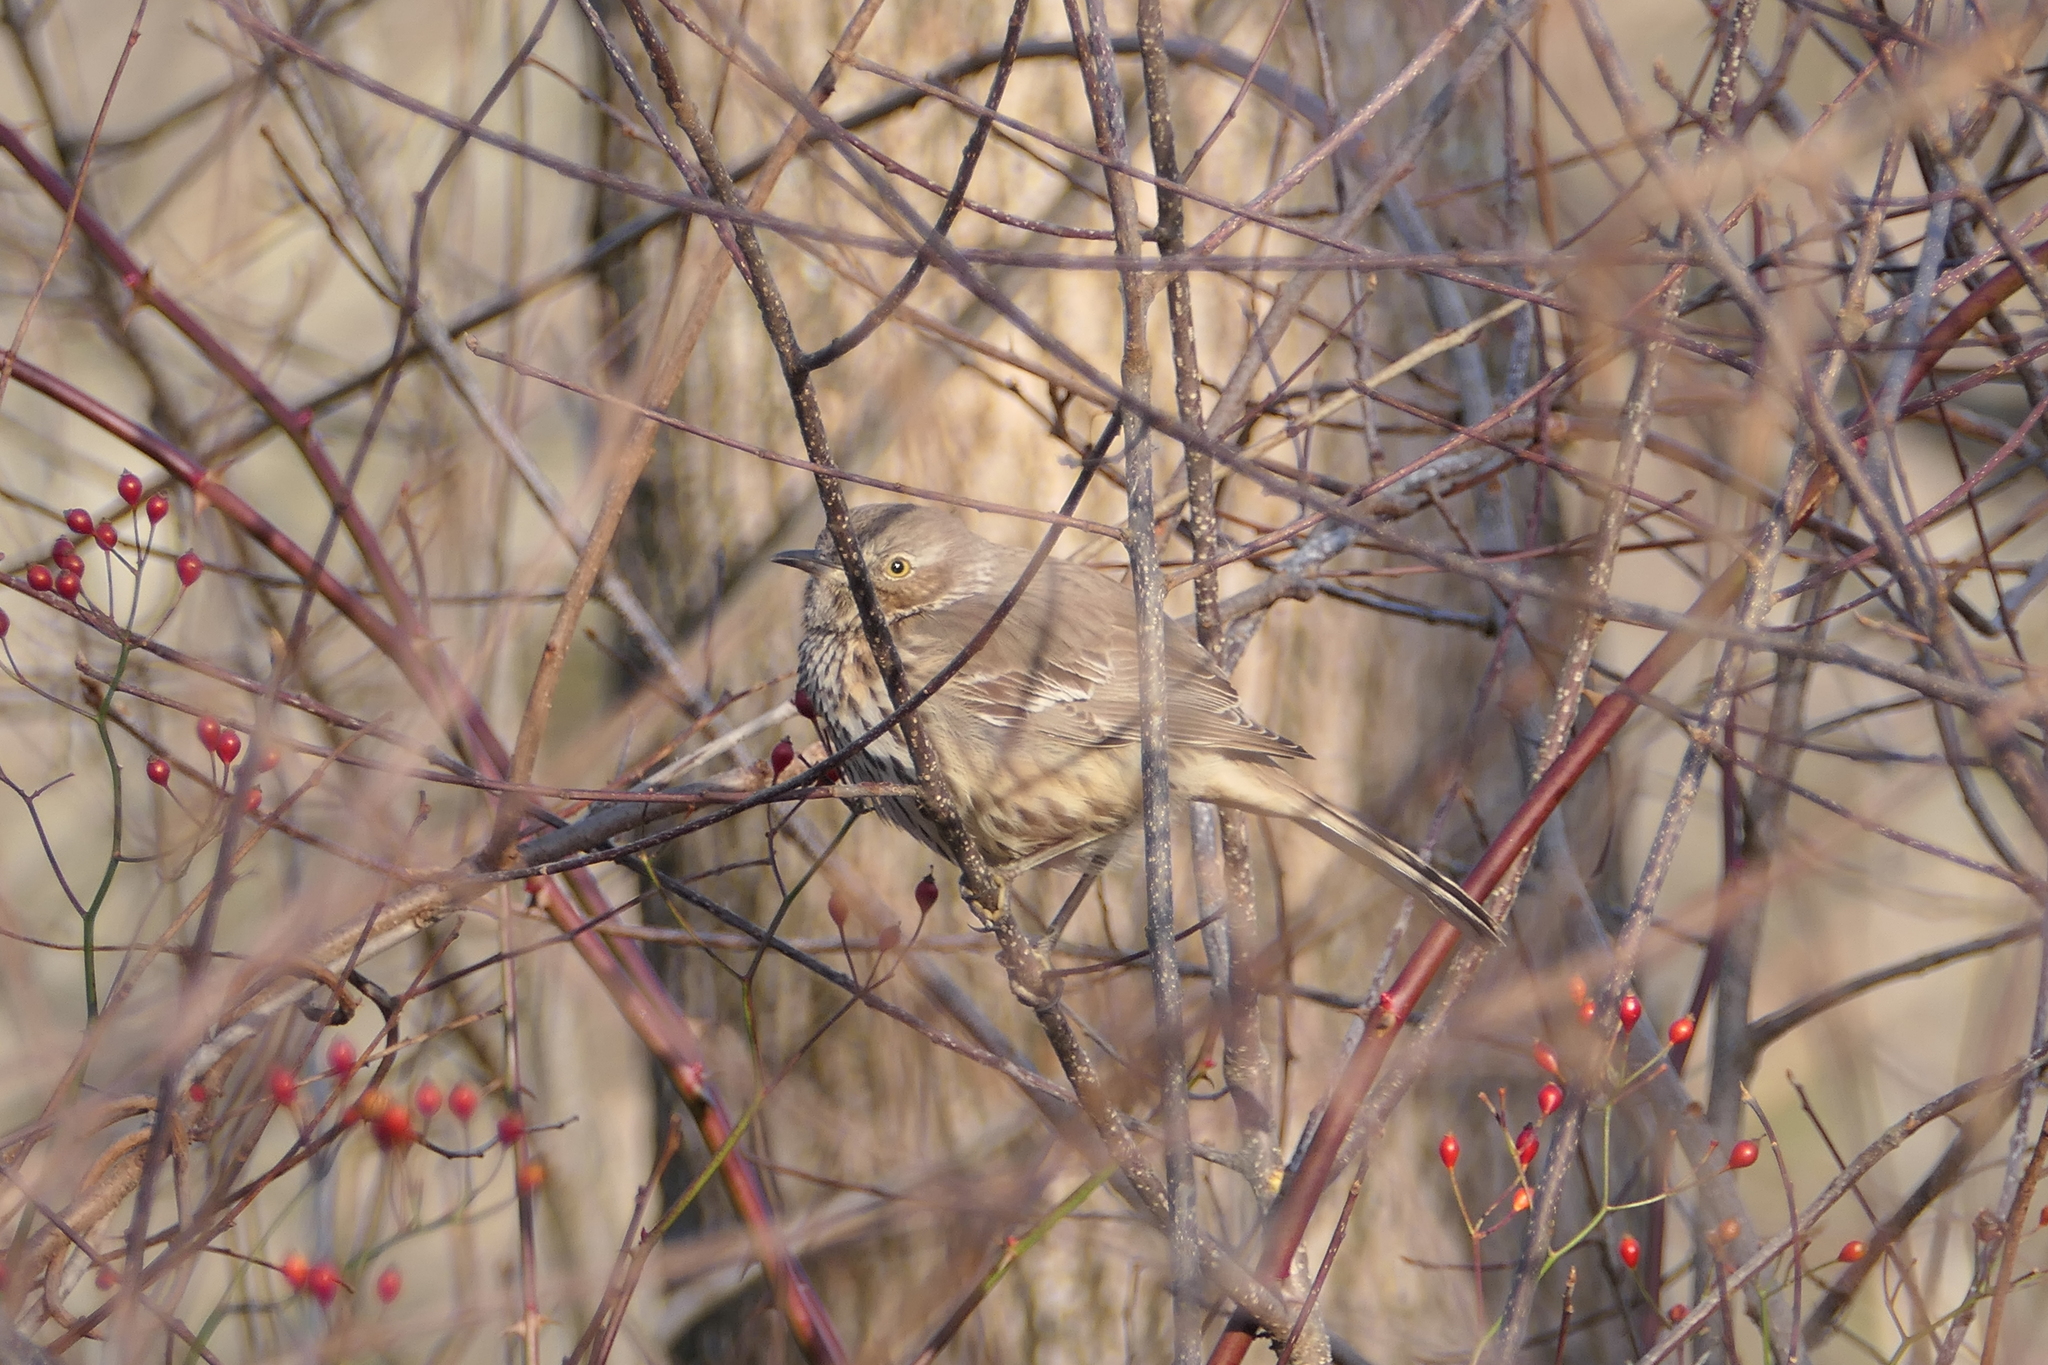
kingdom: Animalia
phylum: Chordata
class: Aves
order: Passeriformes
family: Mimidae
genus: Oreoscoptes
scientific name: Oreoscoptes montanus
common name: Sage thrasher
